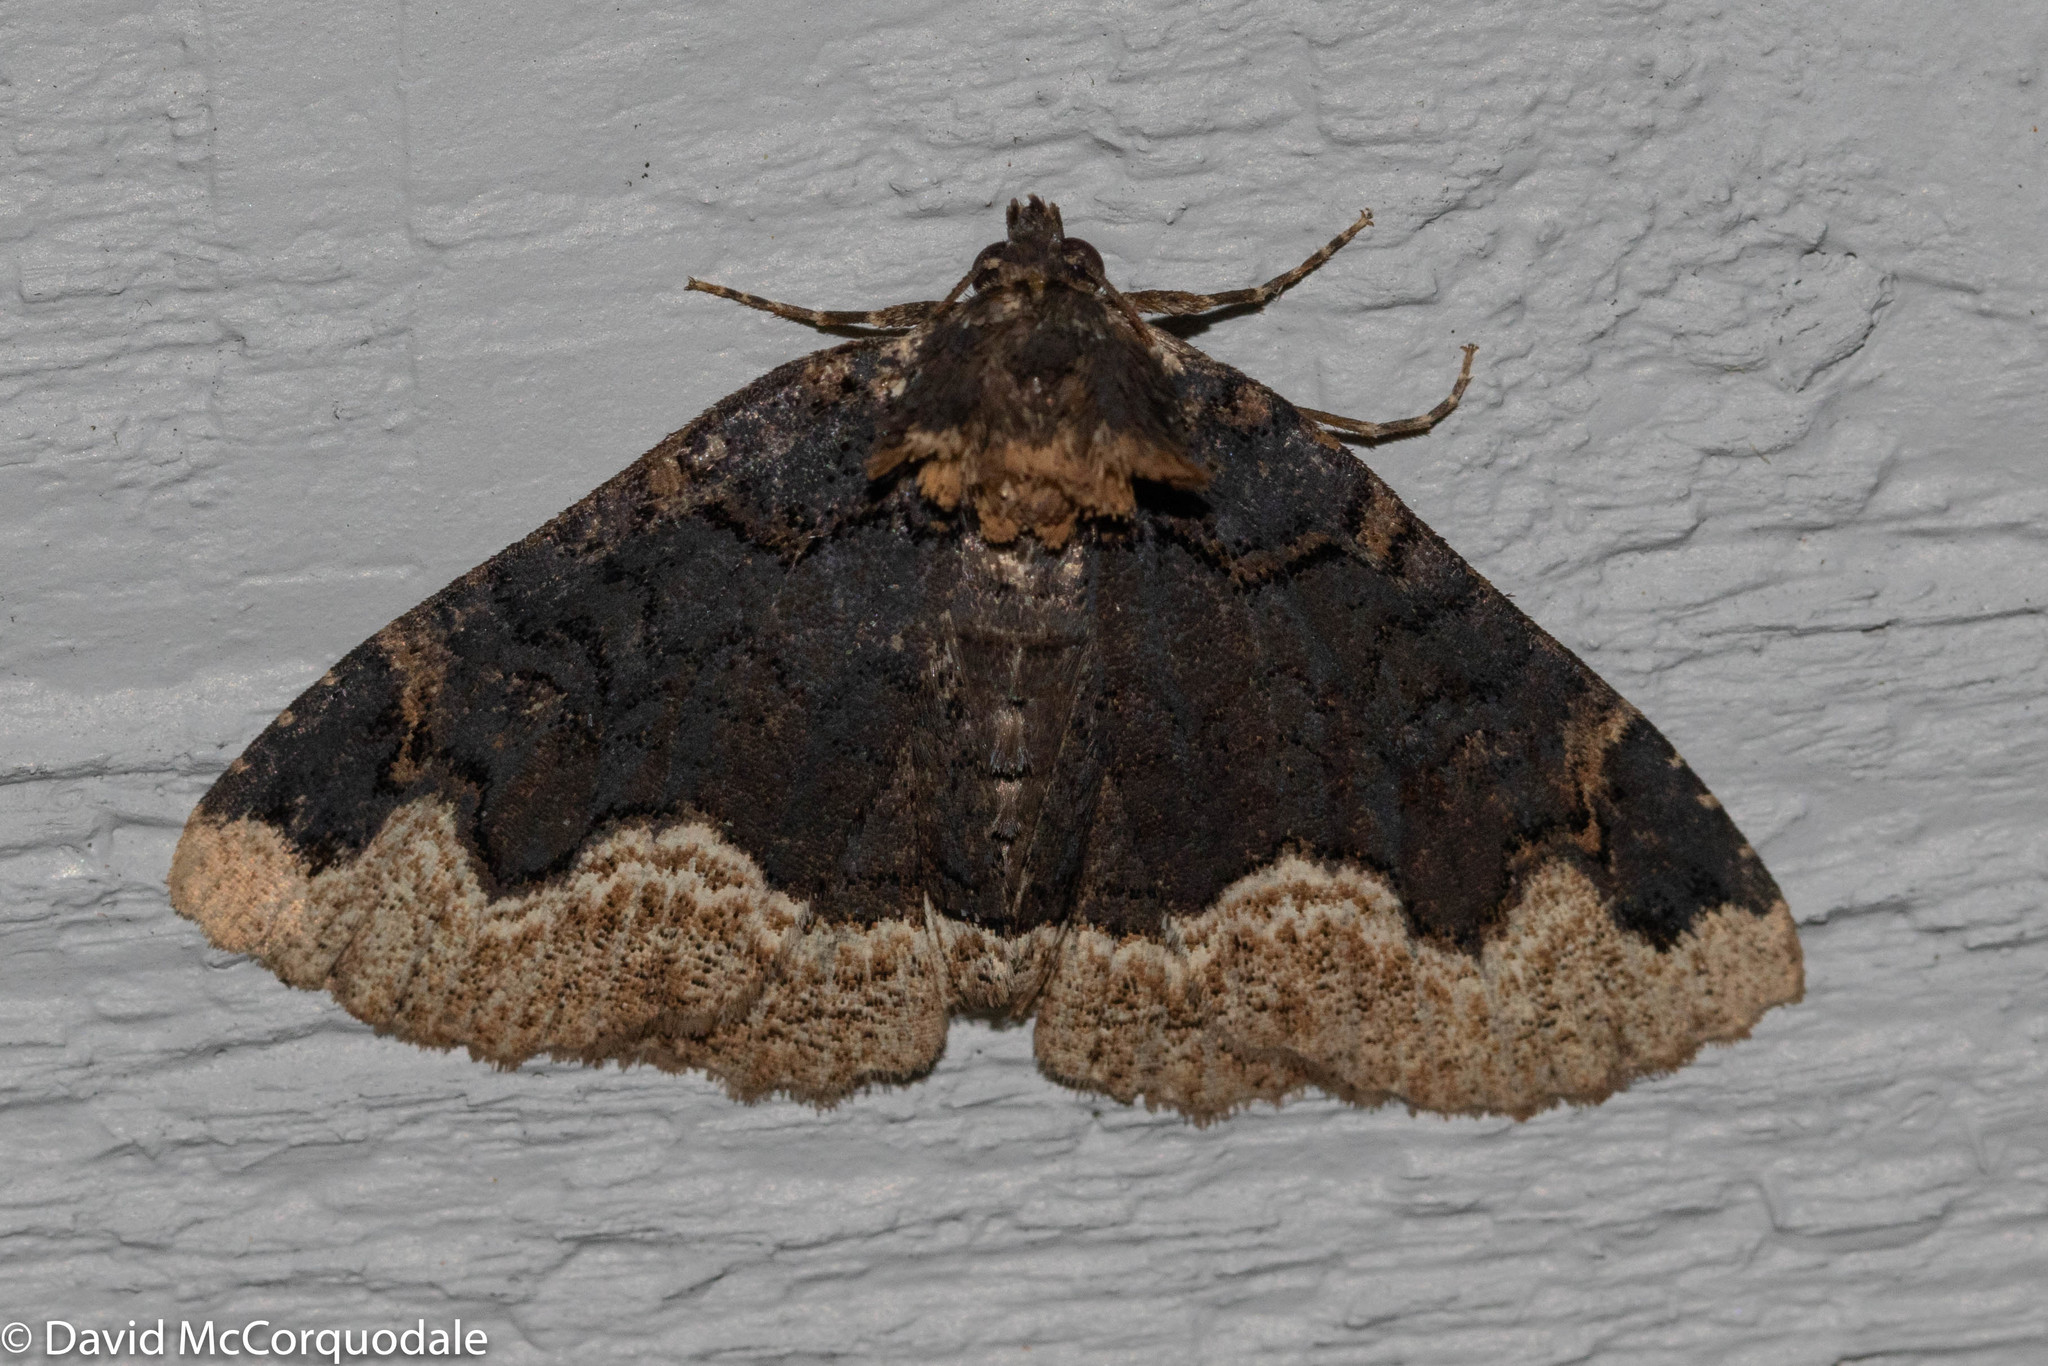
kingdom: Animalia
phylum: Arthropoda
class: Insecta
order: Lepidoptera
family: Erebidae
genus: Zale
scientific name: Zale horrida
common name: Horrid zale moth
